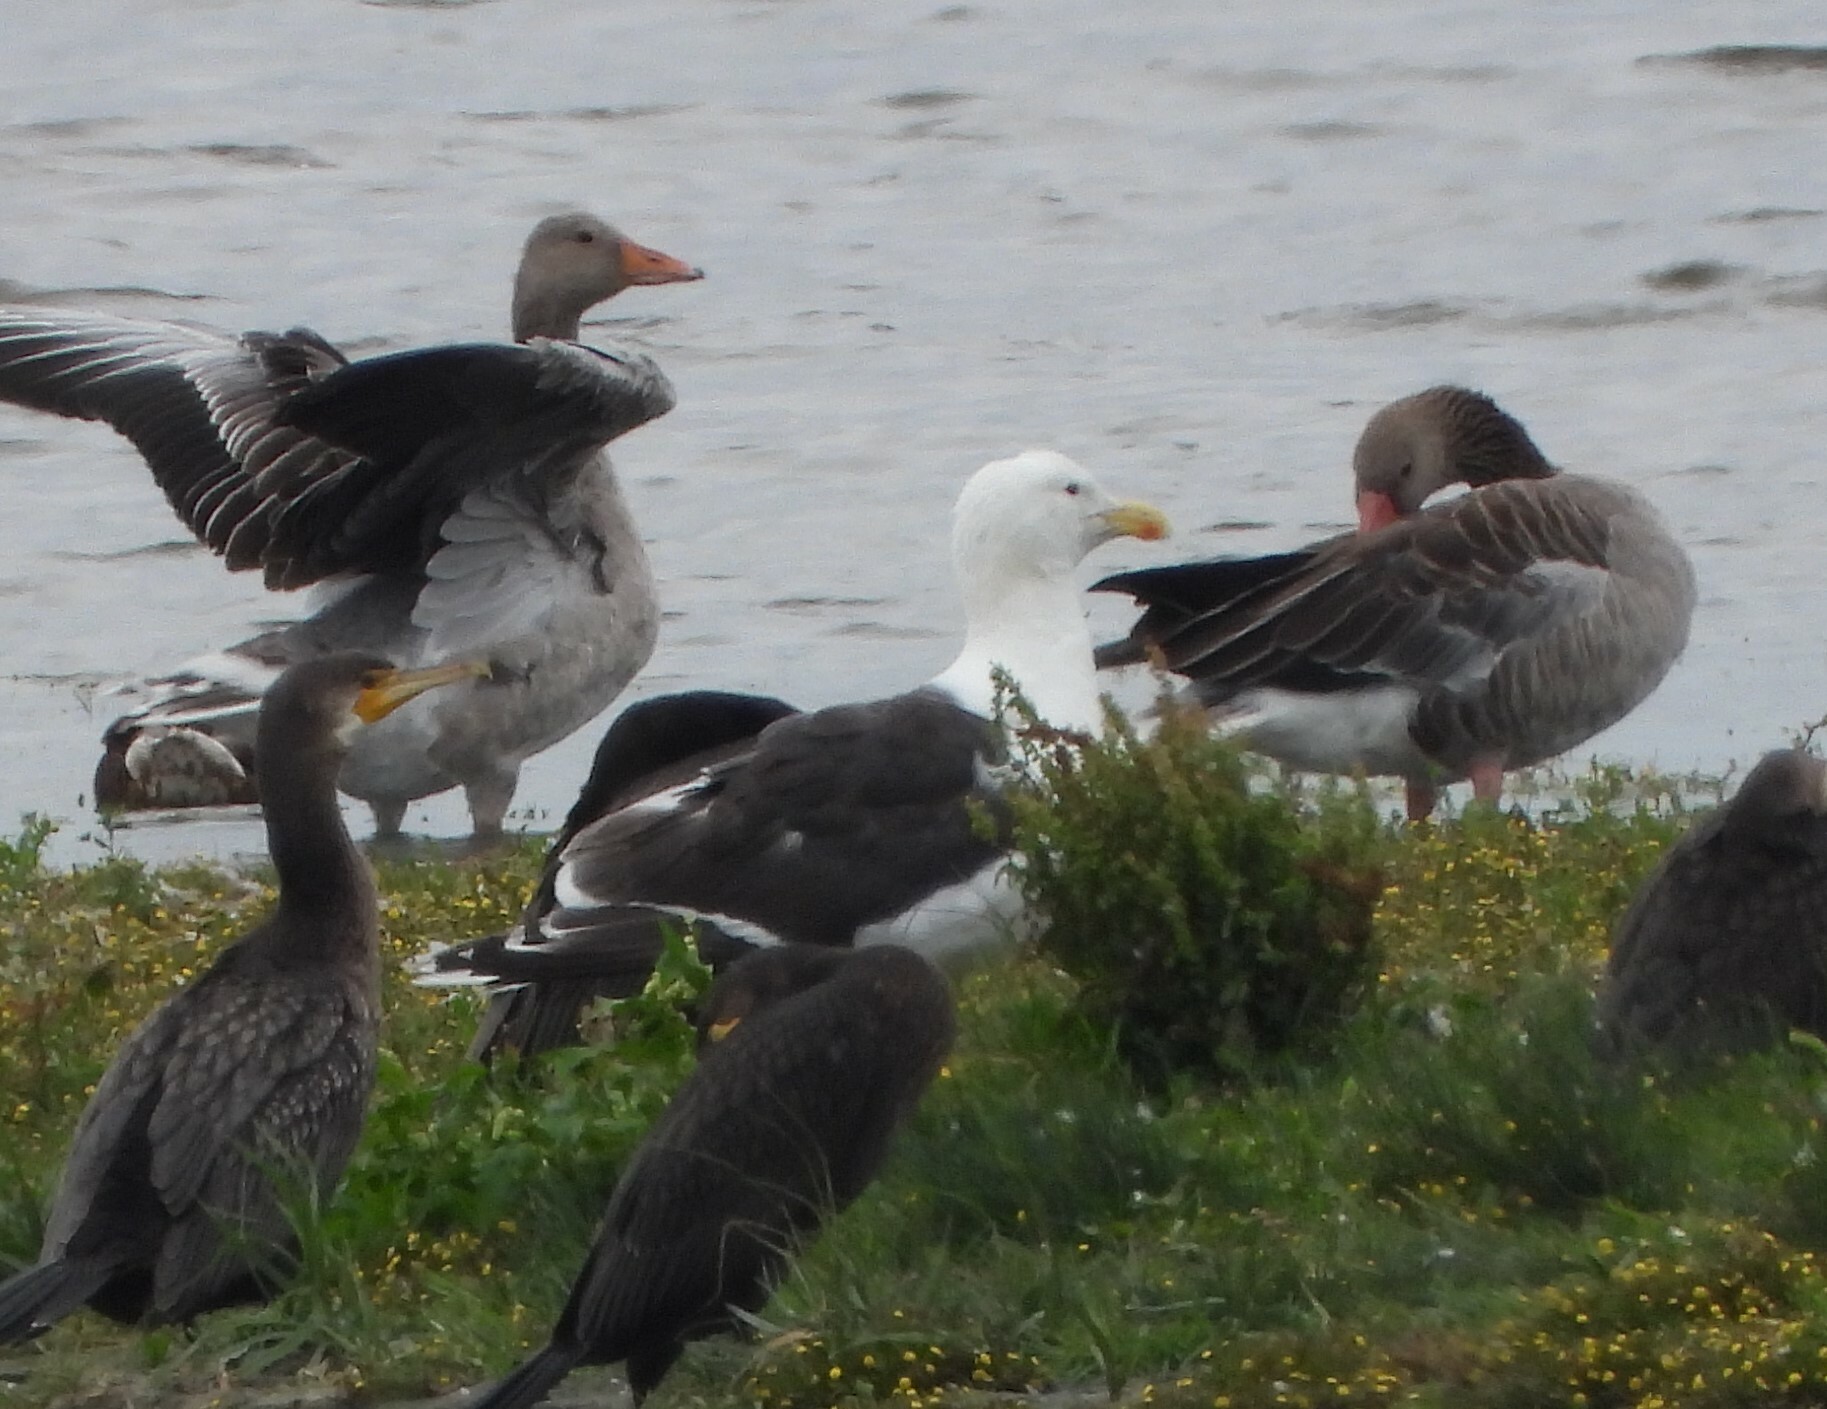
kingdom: Animalia
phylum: Chordata
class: Aves
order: Charadriiformes
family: Laridae
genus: Larus
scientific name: Larus marinus
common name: Great black-backed gull
